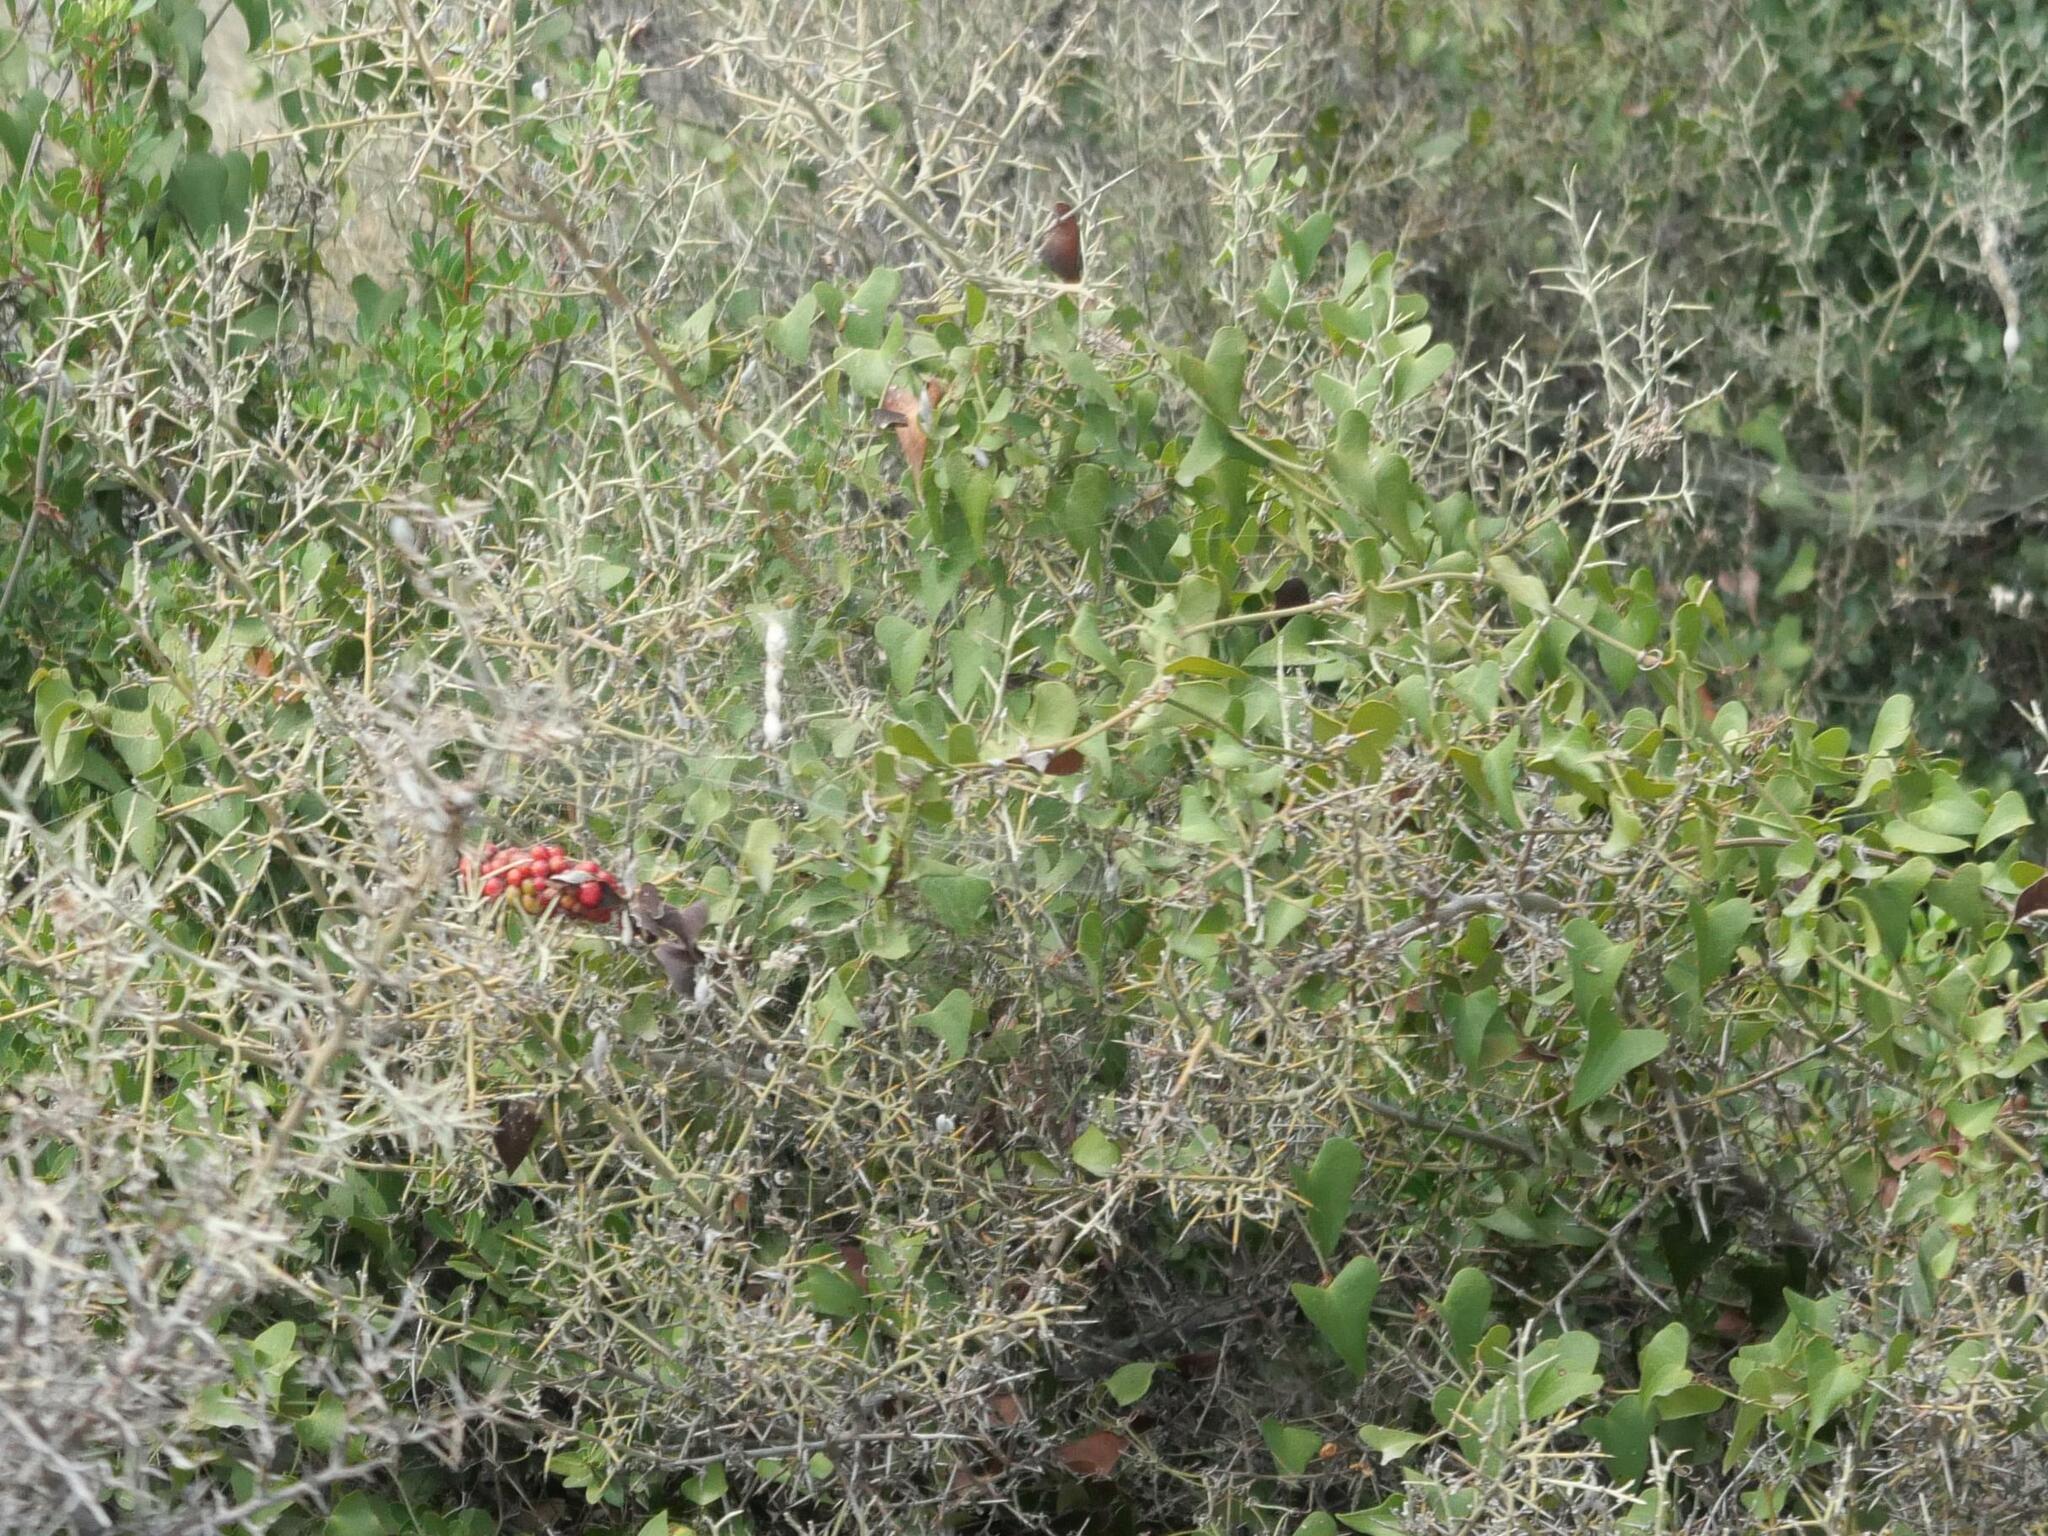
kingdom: Plantae
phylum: Tracheophyta
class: Liliopsida
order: Liliales
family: Smilacaceae
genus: Smilax
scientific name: Smilax aspera
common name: Common smilax
